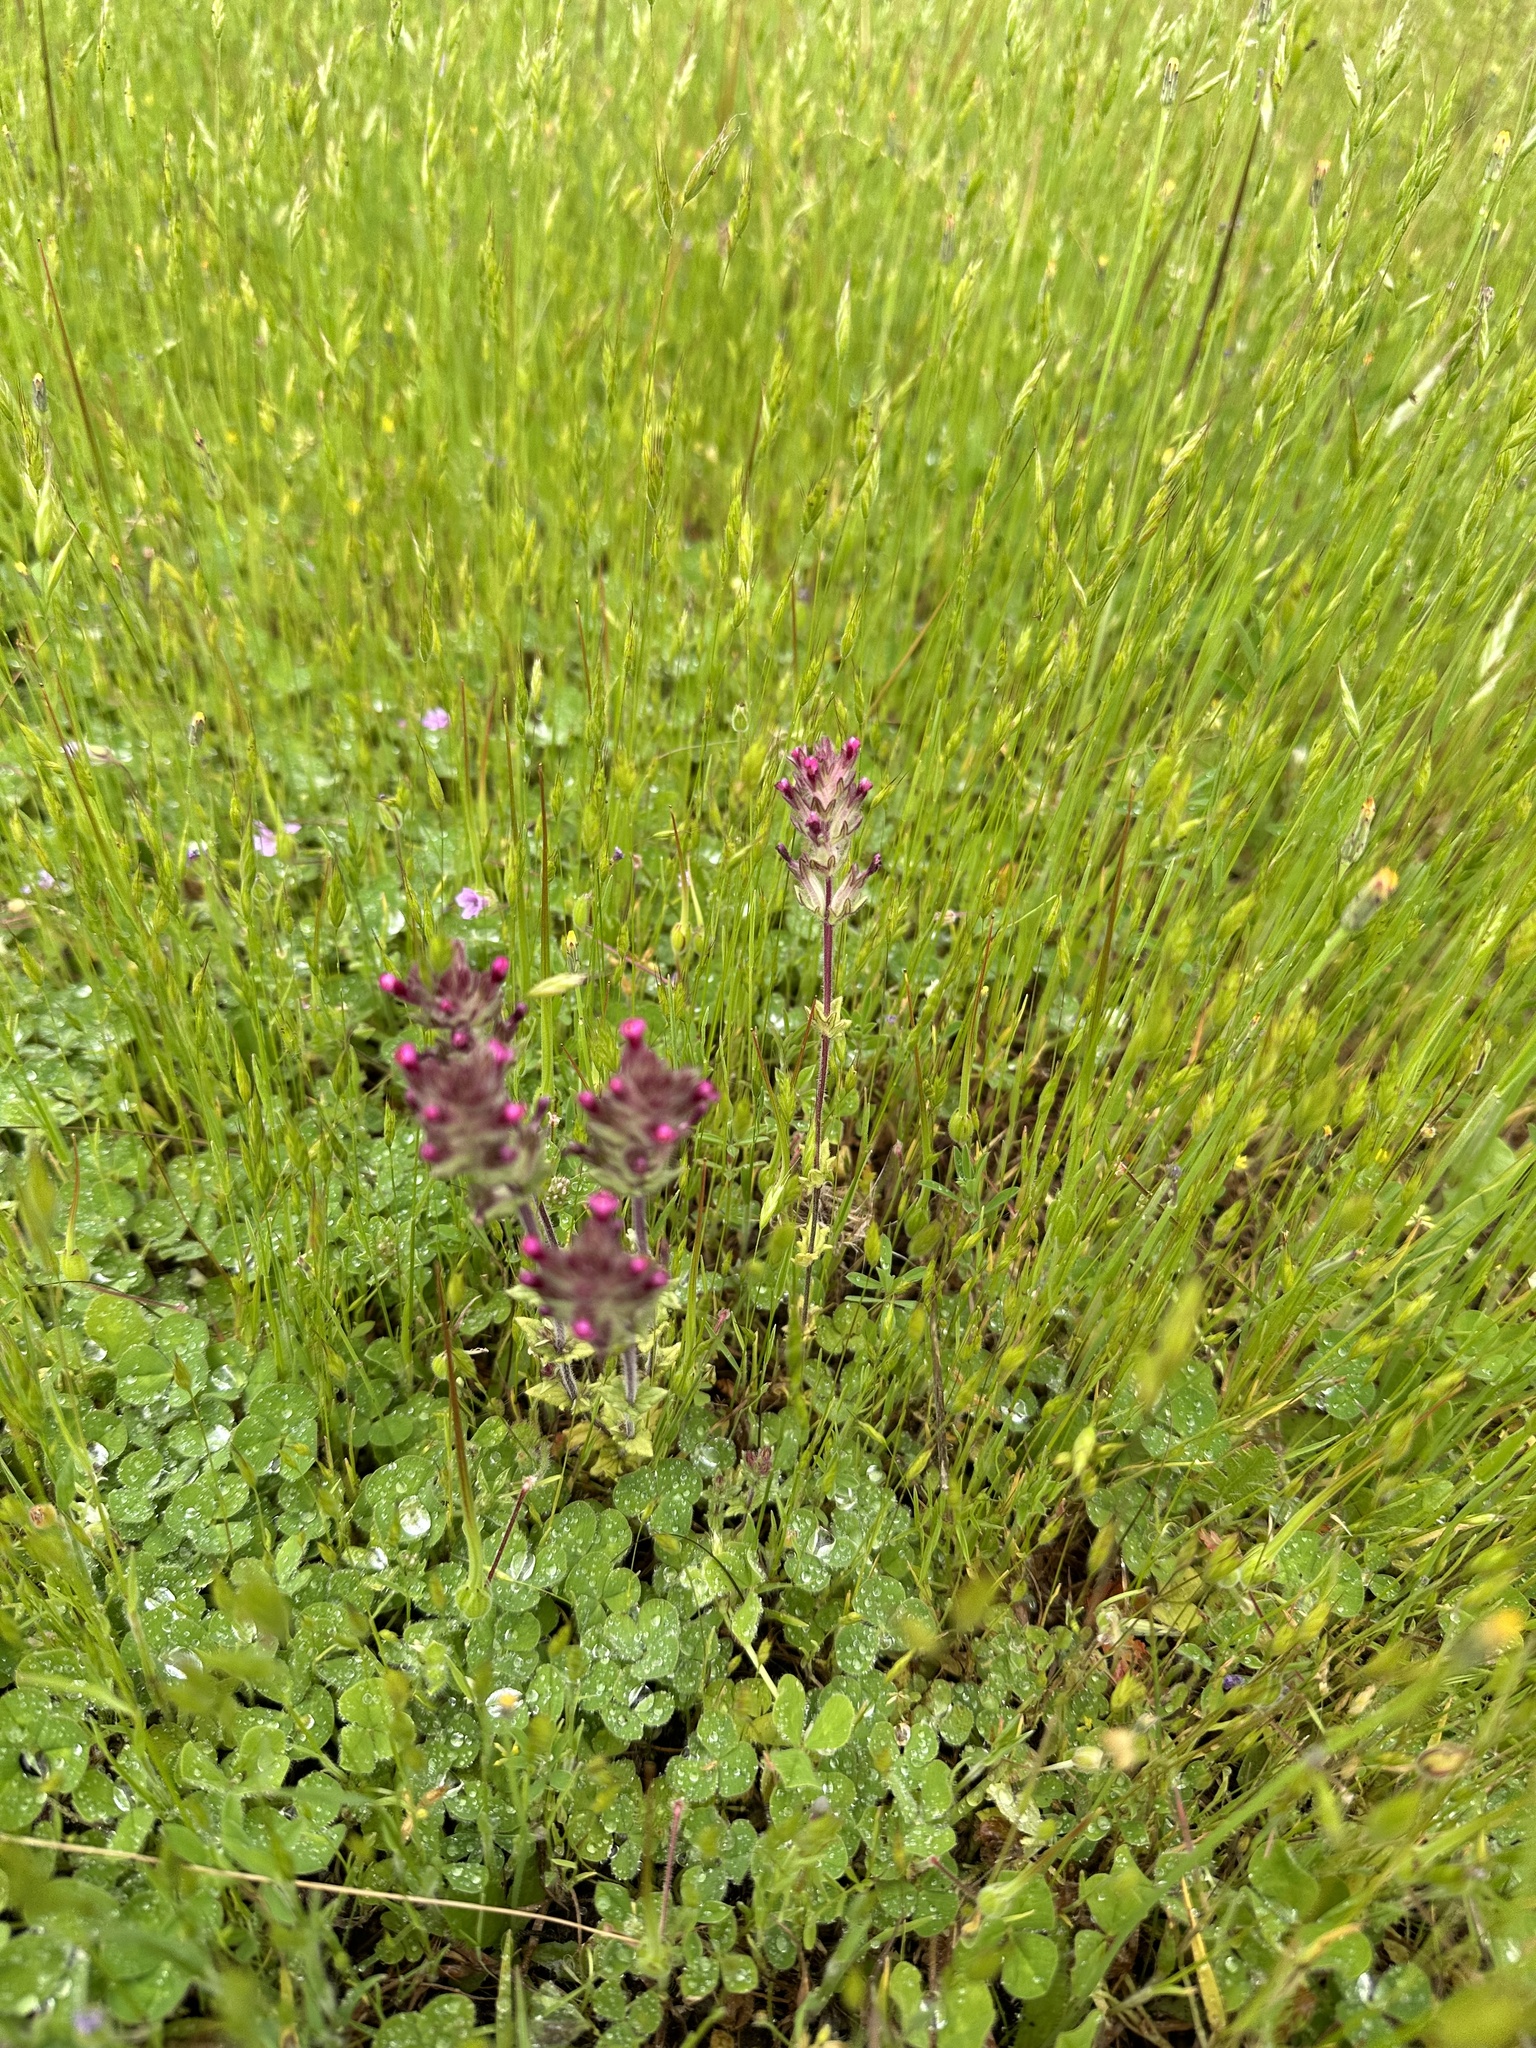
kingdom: Plantae
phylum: Tracheophyta
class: Magnoliopsida
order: Lamiales
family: Orobanchaceae
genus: Parentucellia
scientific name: Parentucellia latifolia
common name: Broadleaf glandweed
